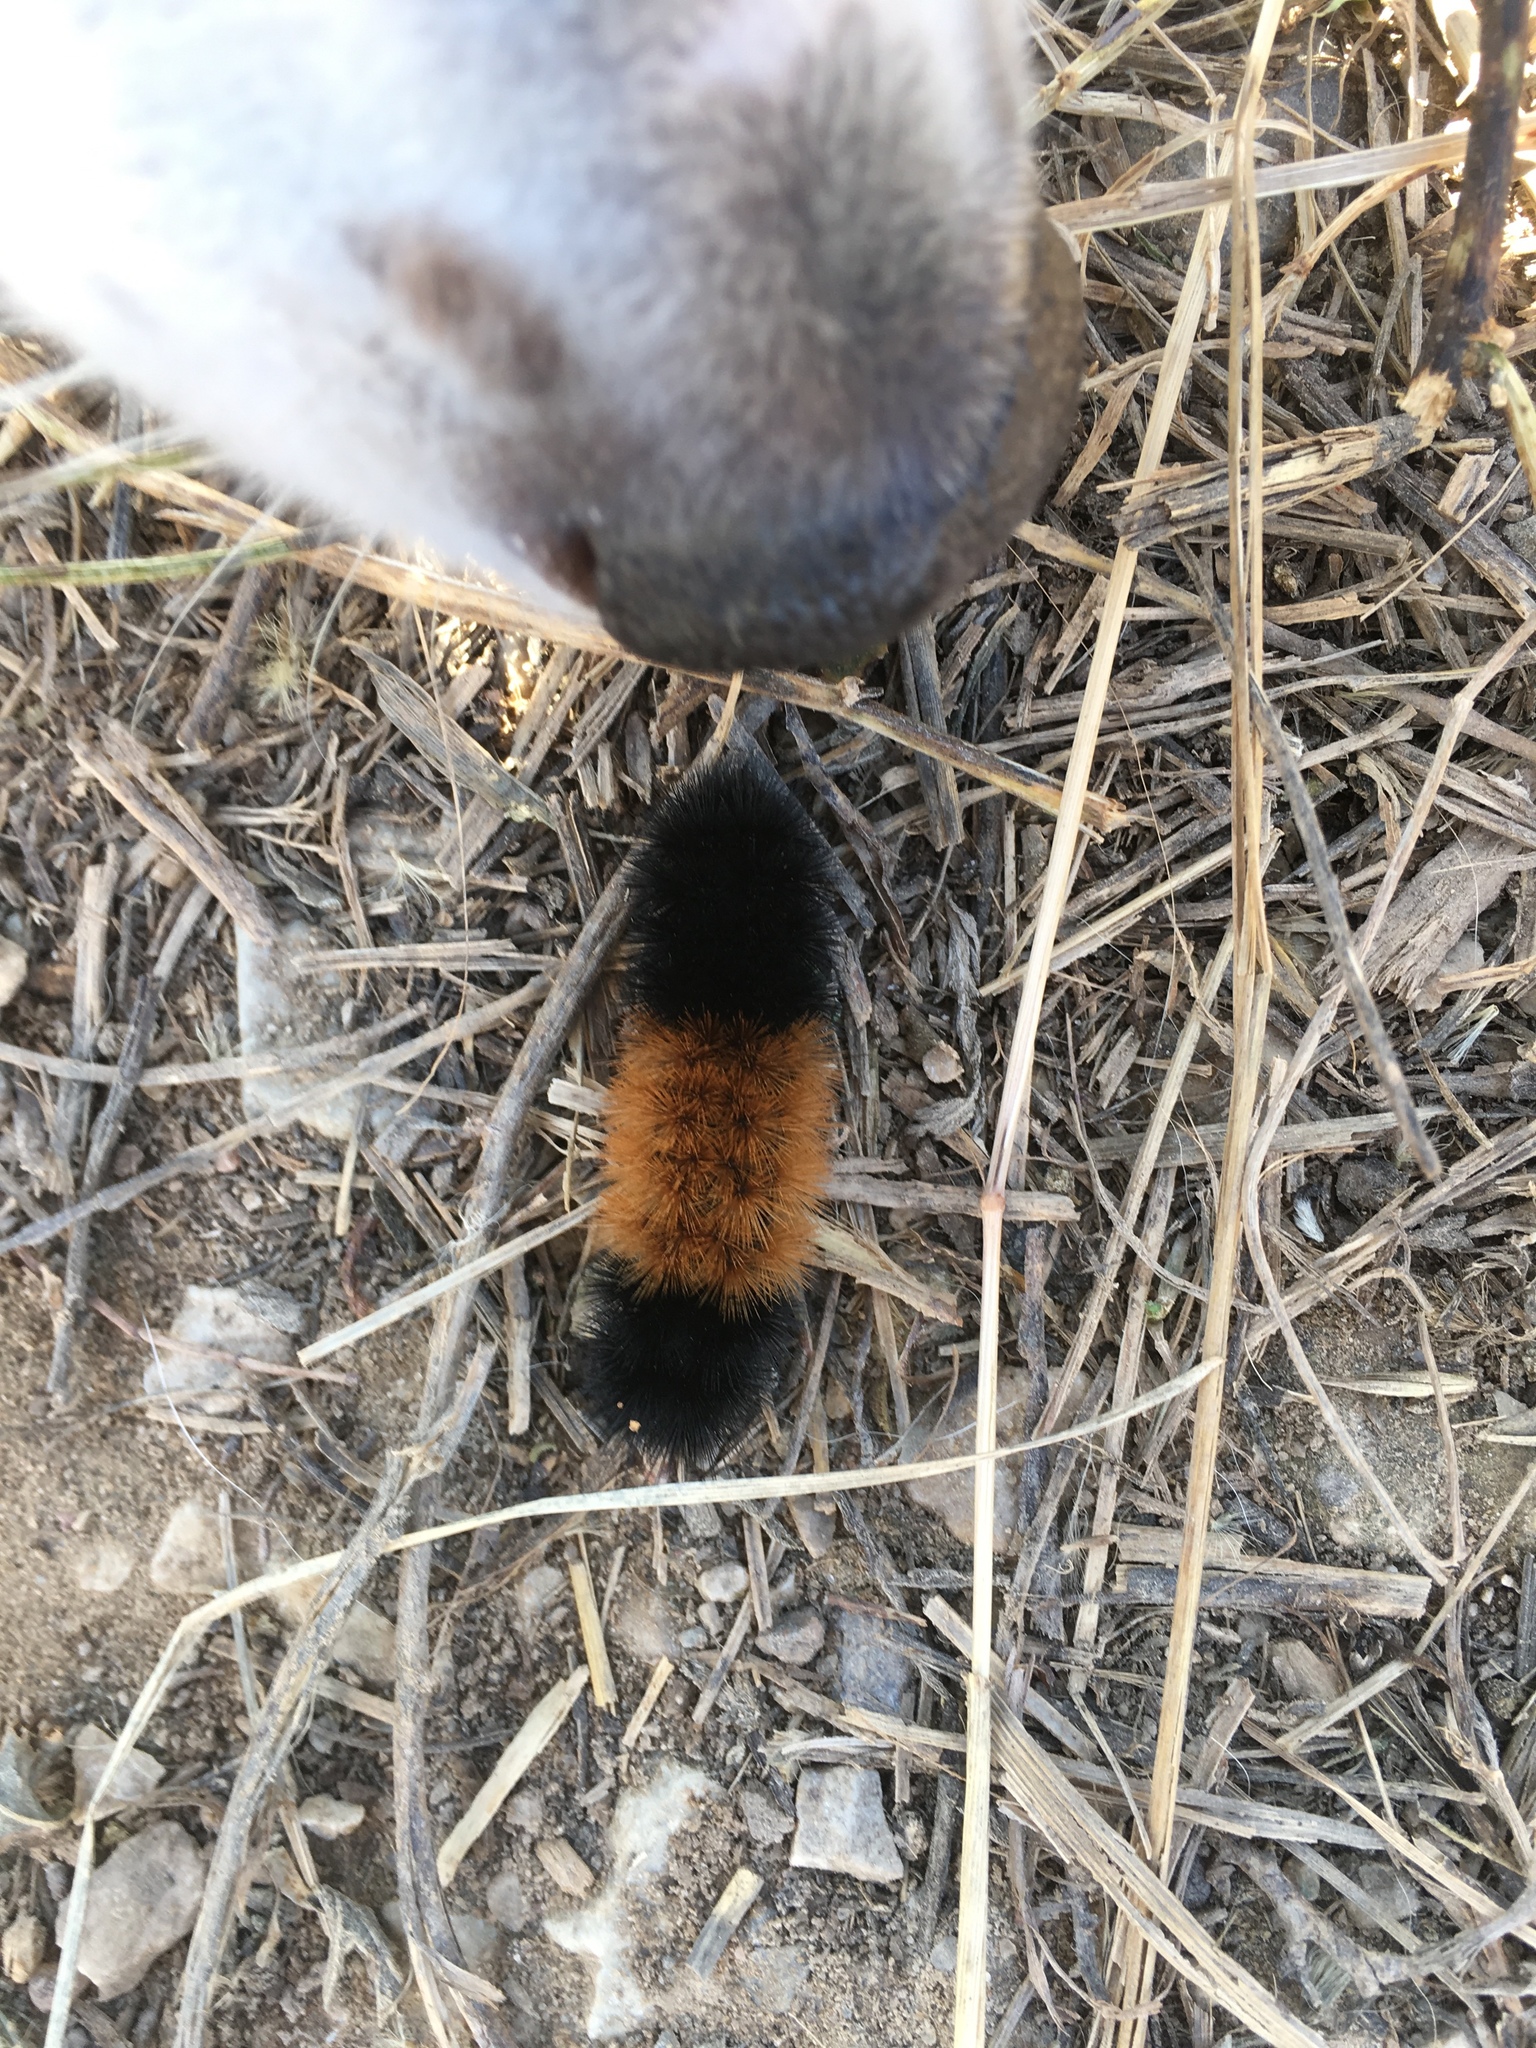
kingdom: Animalia
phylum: Arthropoda
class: Insecta
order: Lepidoptera
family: Erebidae
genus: Pyrrharctia
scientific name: Pyrrharctia isabella
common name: Isabella tiger moth
